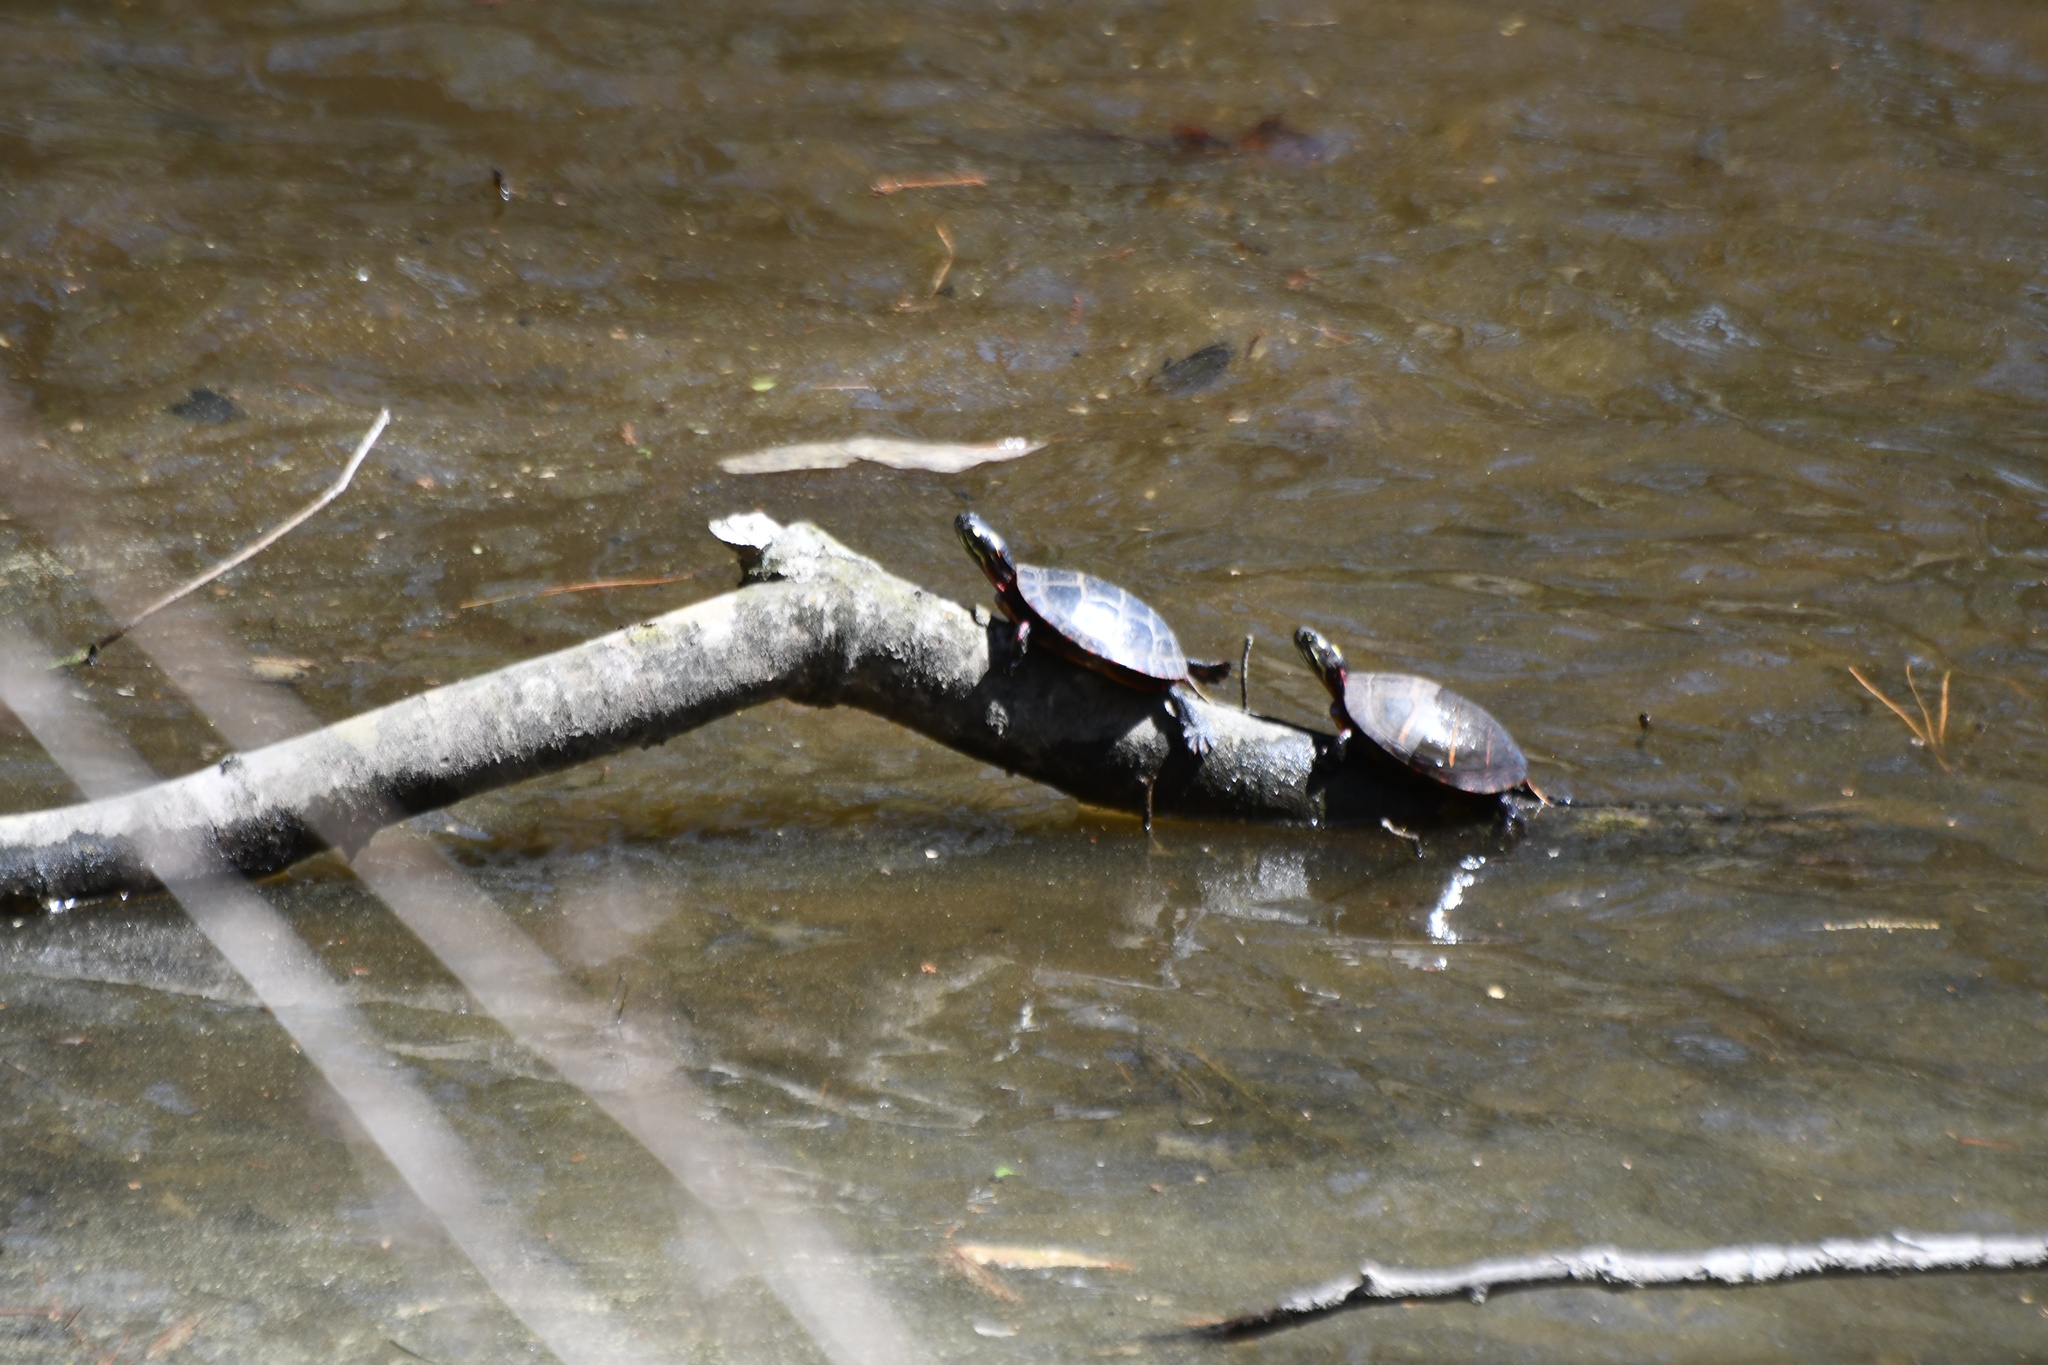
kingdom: Animalia
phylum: Chordata
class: Testudines
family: Emydidae
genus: Chrysemys
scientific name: Chrysemys picta
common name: Painted turtle
